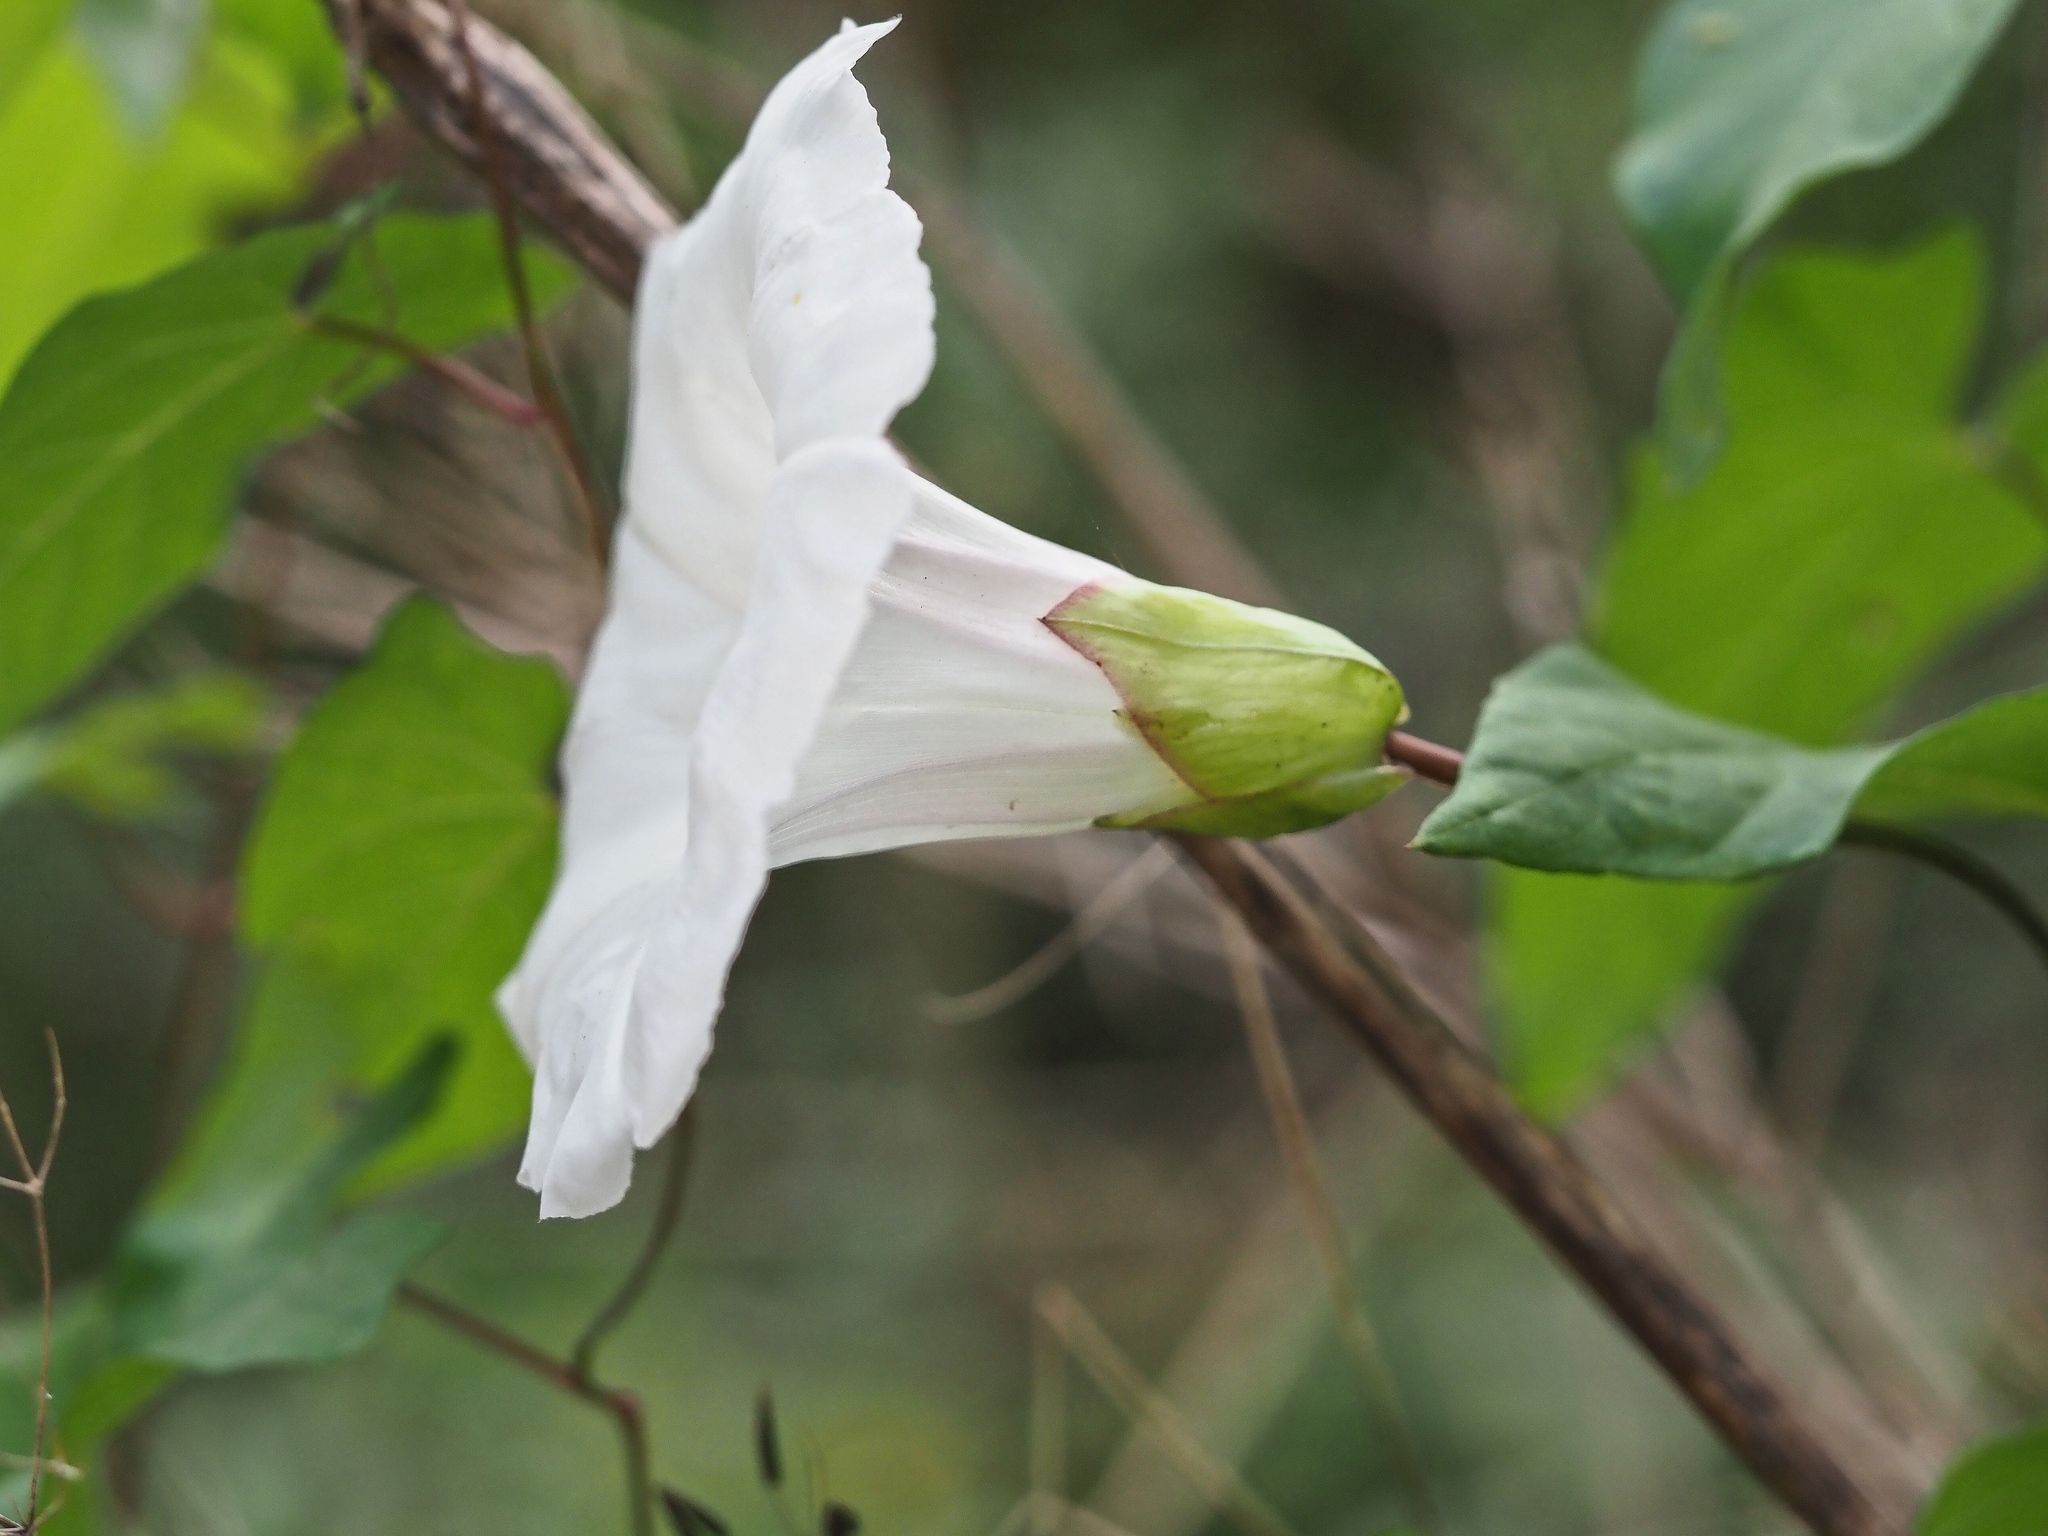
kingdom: Plantae
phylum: Tracheophyta
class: Magnoliopsida
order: Solanales
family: Convolvulaceae
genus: Calystegia
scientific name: Calystegia silvatica
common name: Large bindweed
